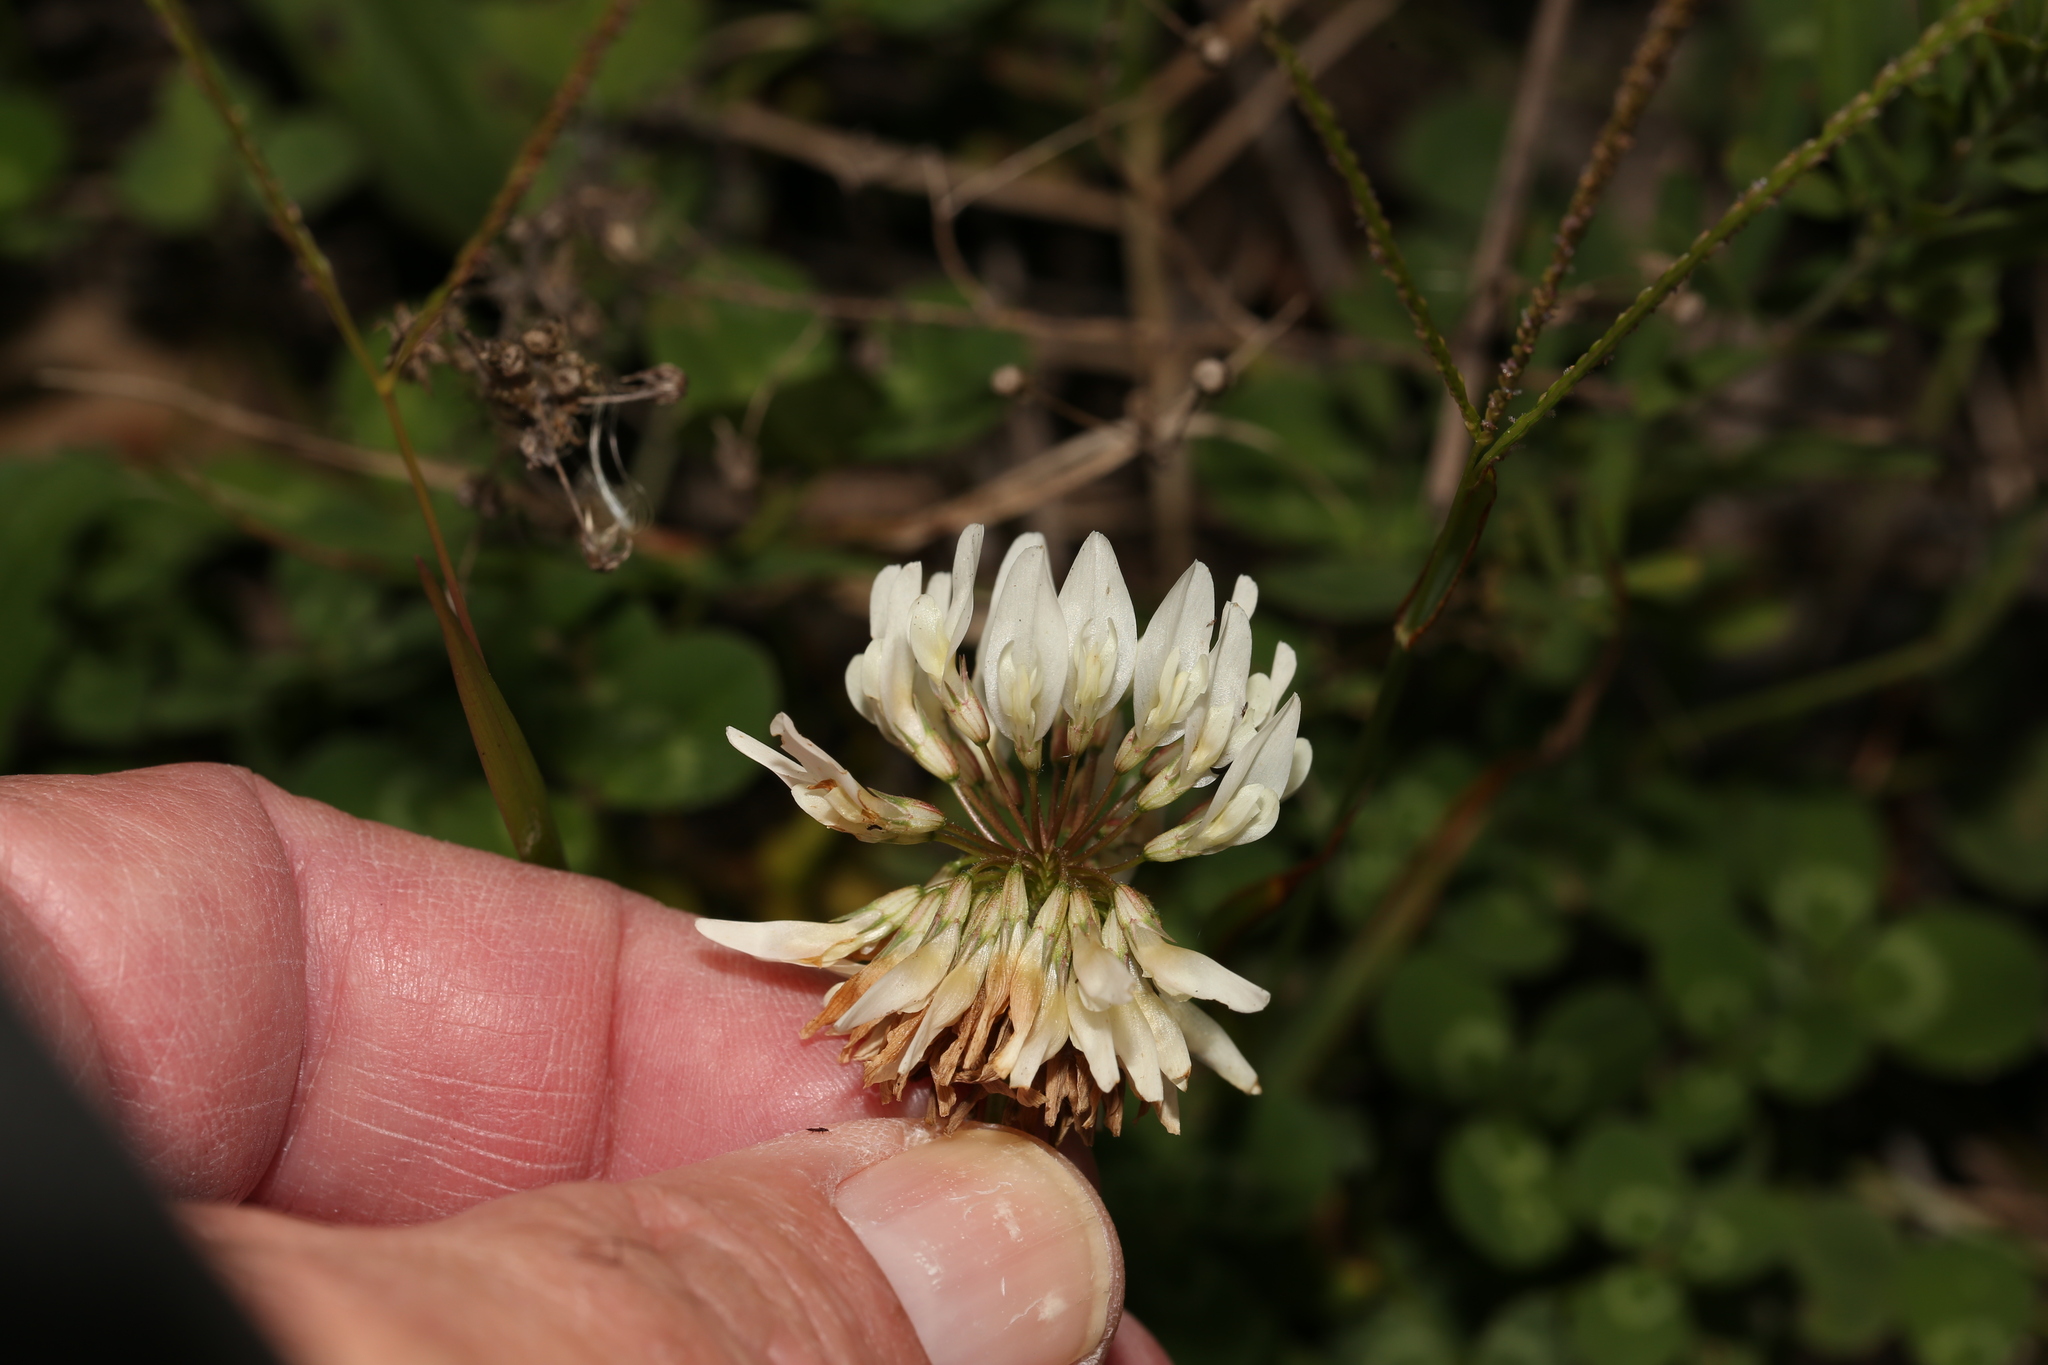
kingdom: Plantae
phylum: Tracheophyta
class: Magnoliopsida
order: Fabales
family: Fabaceae
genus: Trifolium
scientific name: Trifolium repens
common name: White clover
